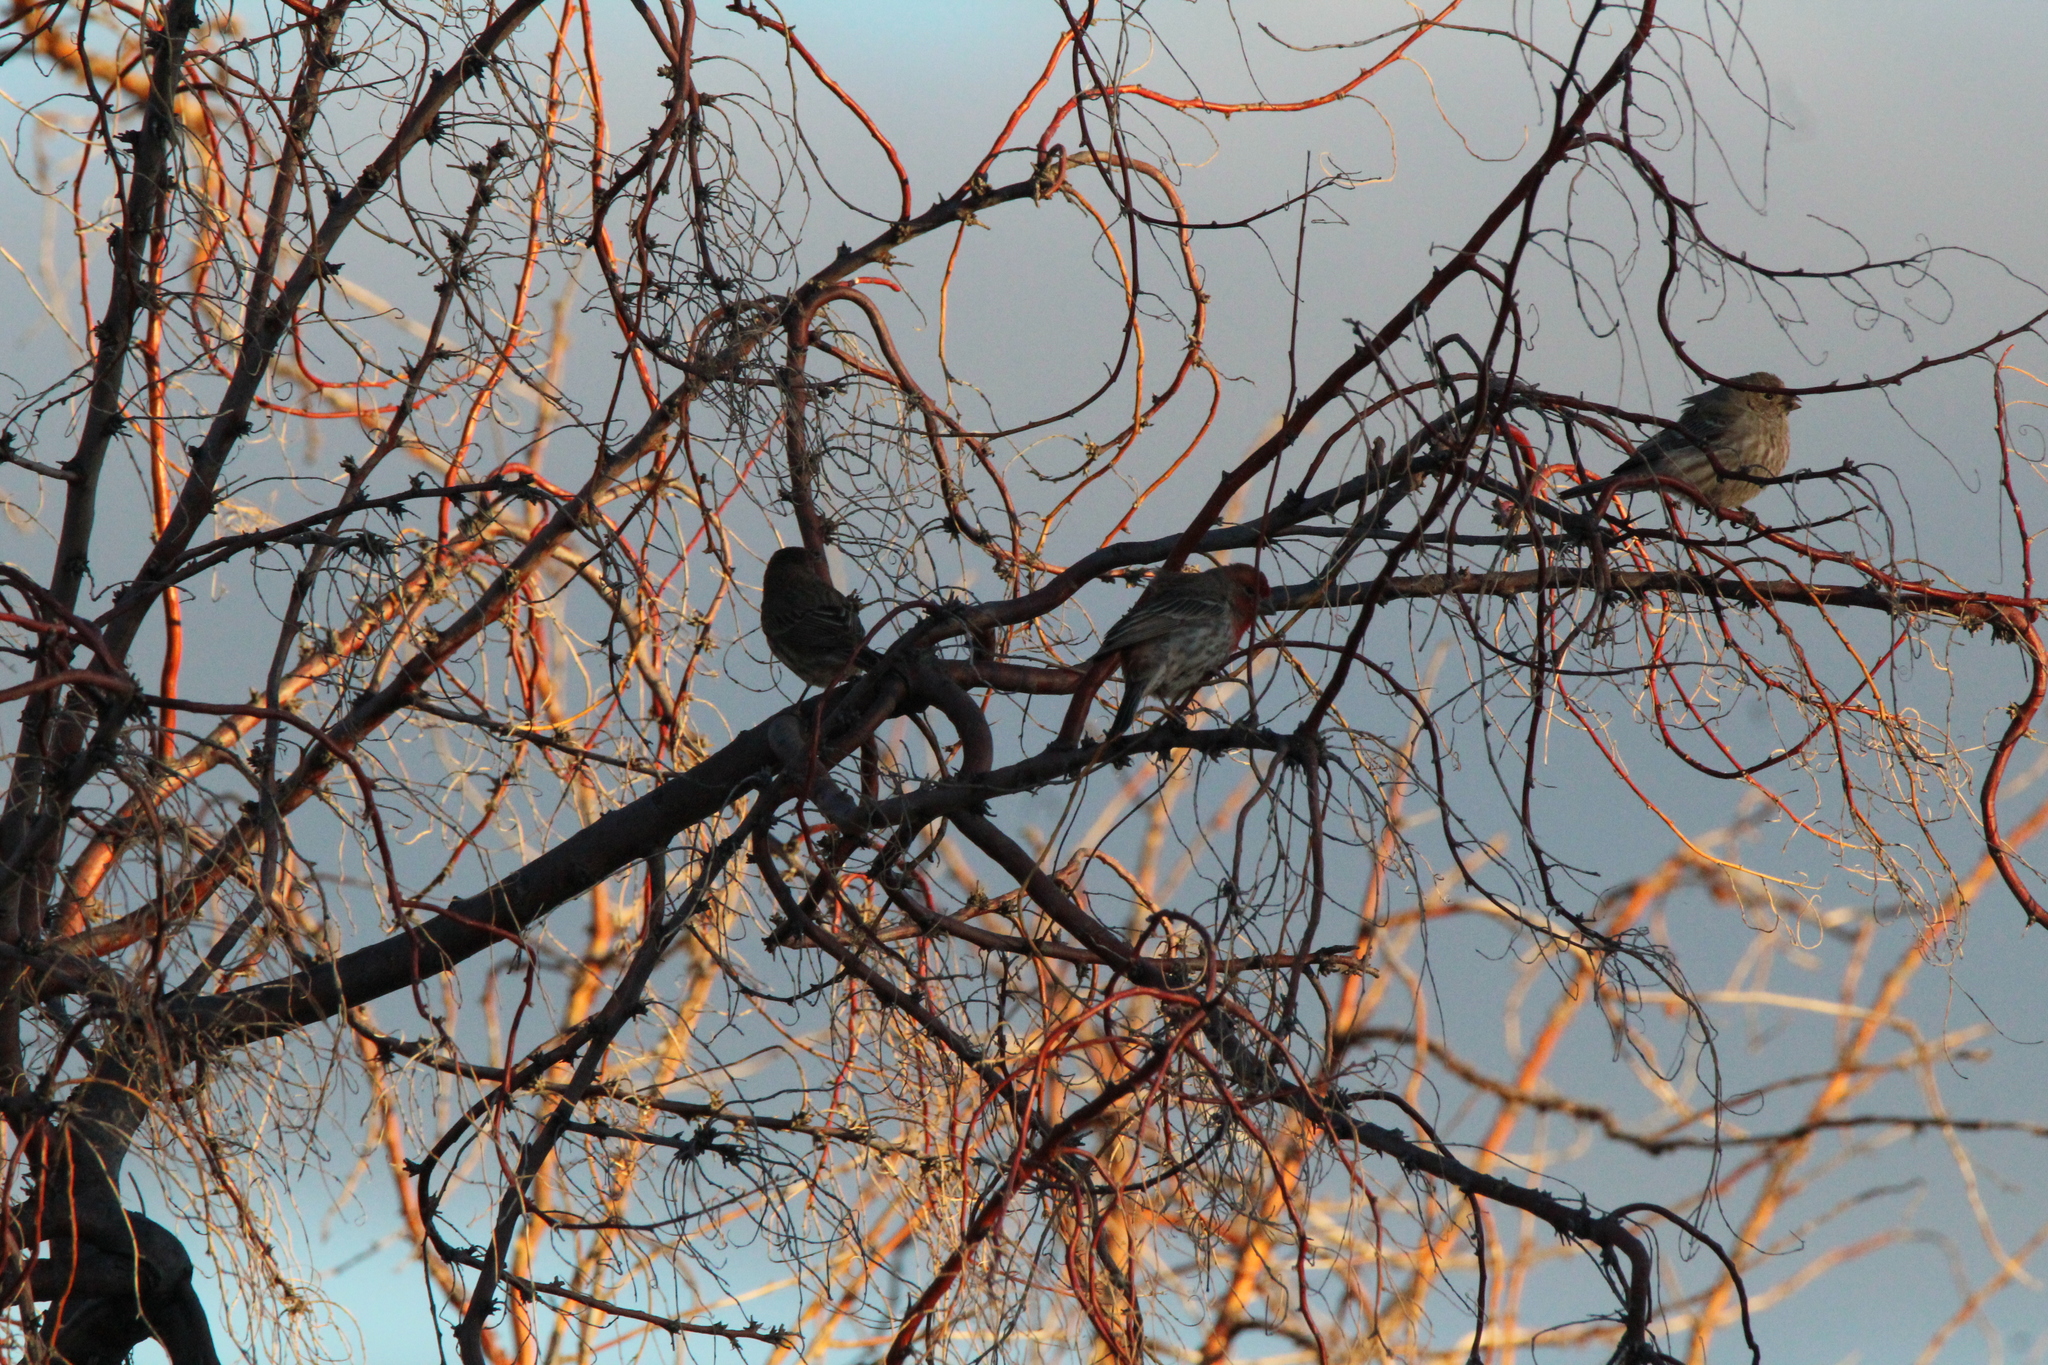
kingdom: Animalia
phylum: Chordata
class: Aves
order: Passeriformes
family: Fringillidae
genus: Haemorhous
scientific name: Haemorhous mexicanus
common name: House finch
